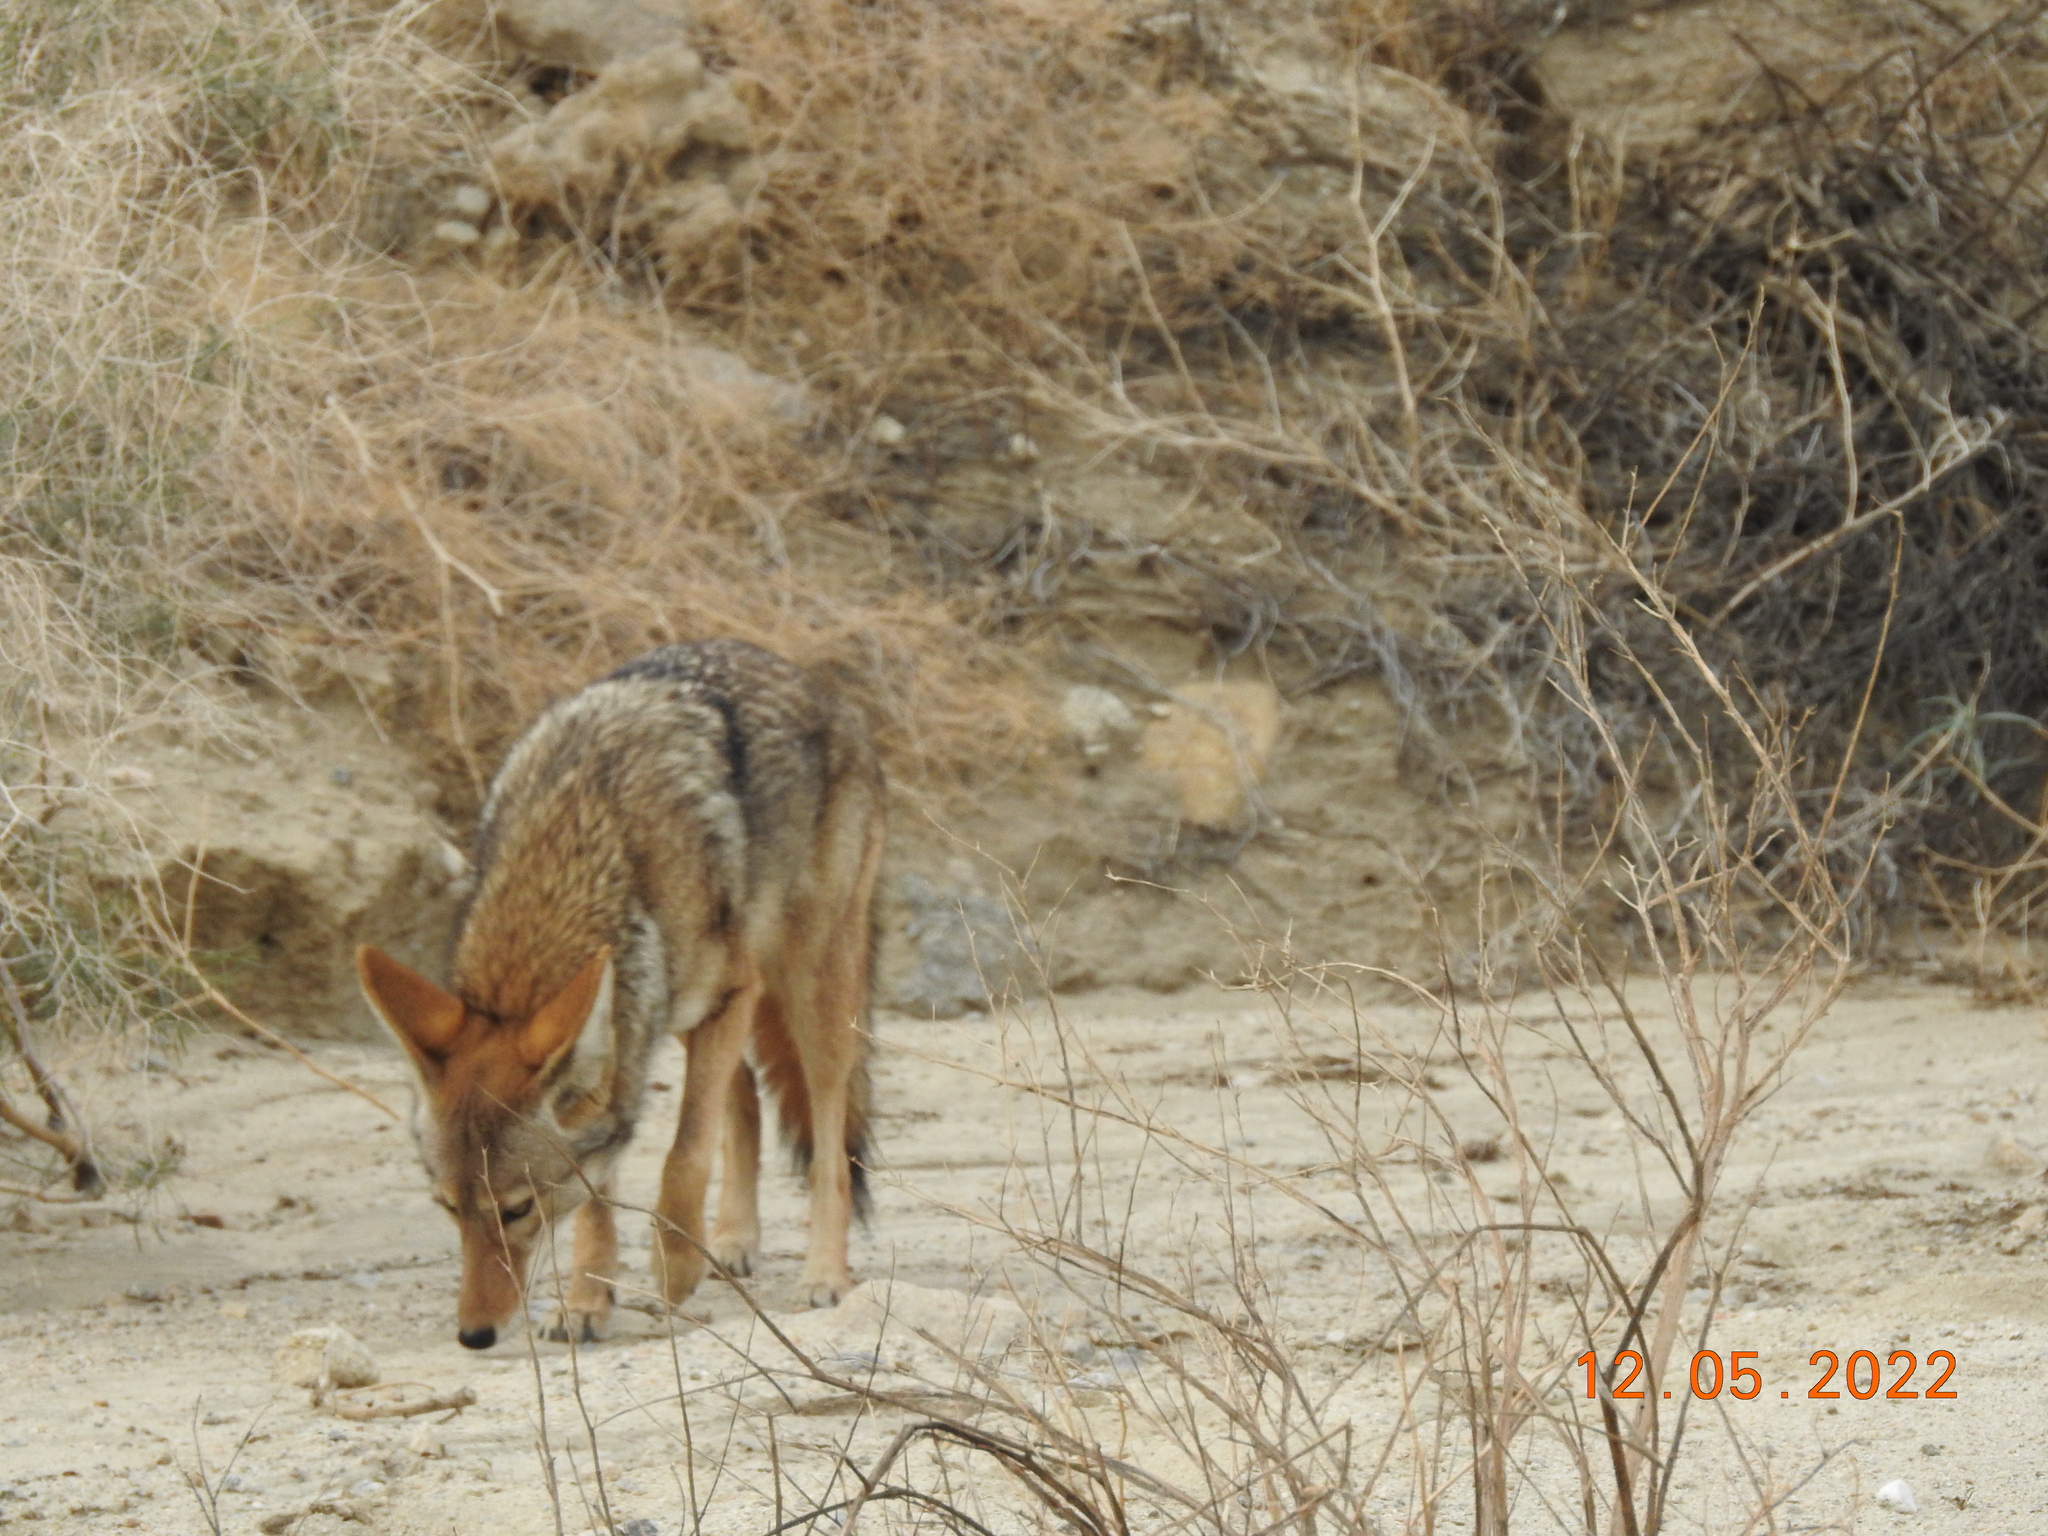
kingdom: Animalia
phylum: Chordata
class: Mammalia
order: Carnivora
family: Canidae
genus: Canis
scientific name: Canis latrans
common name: Coyote
